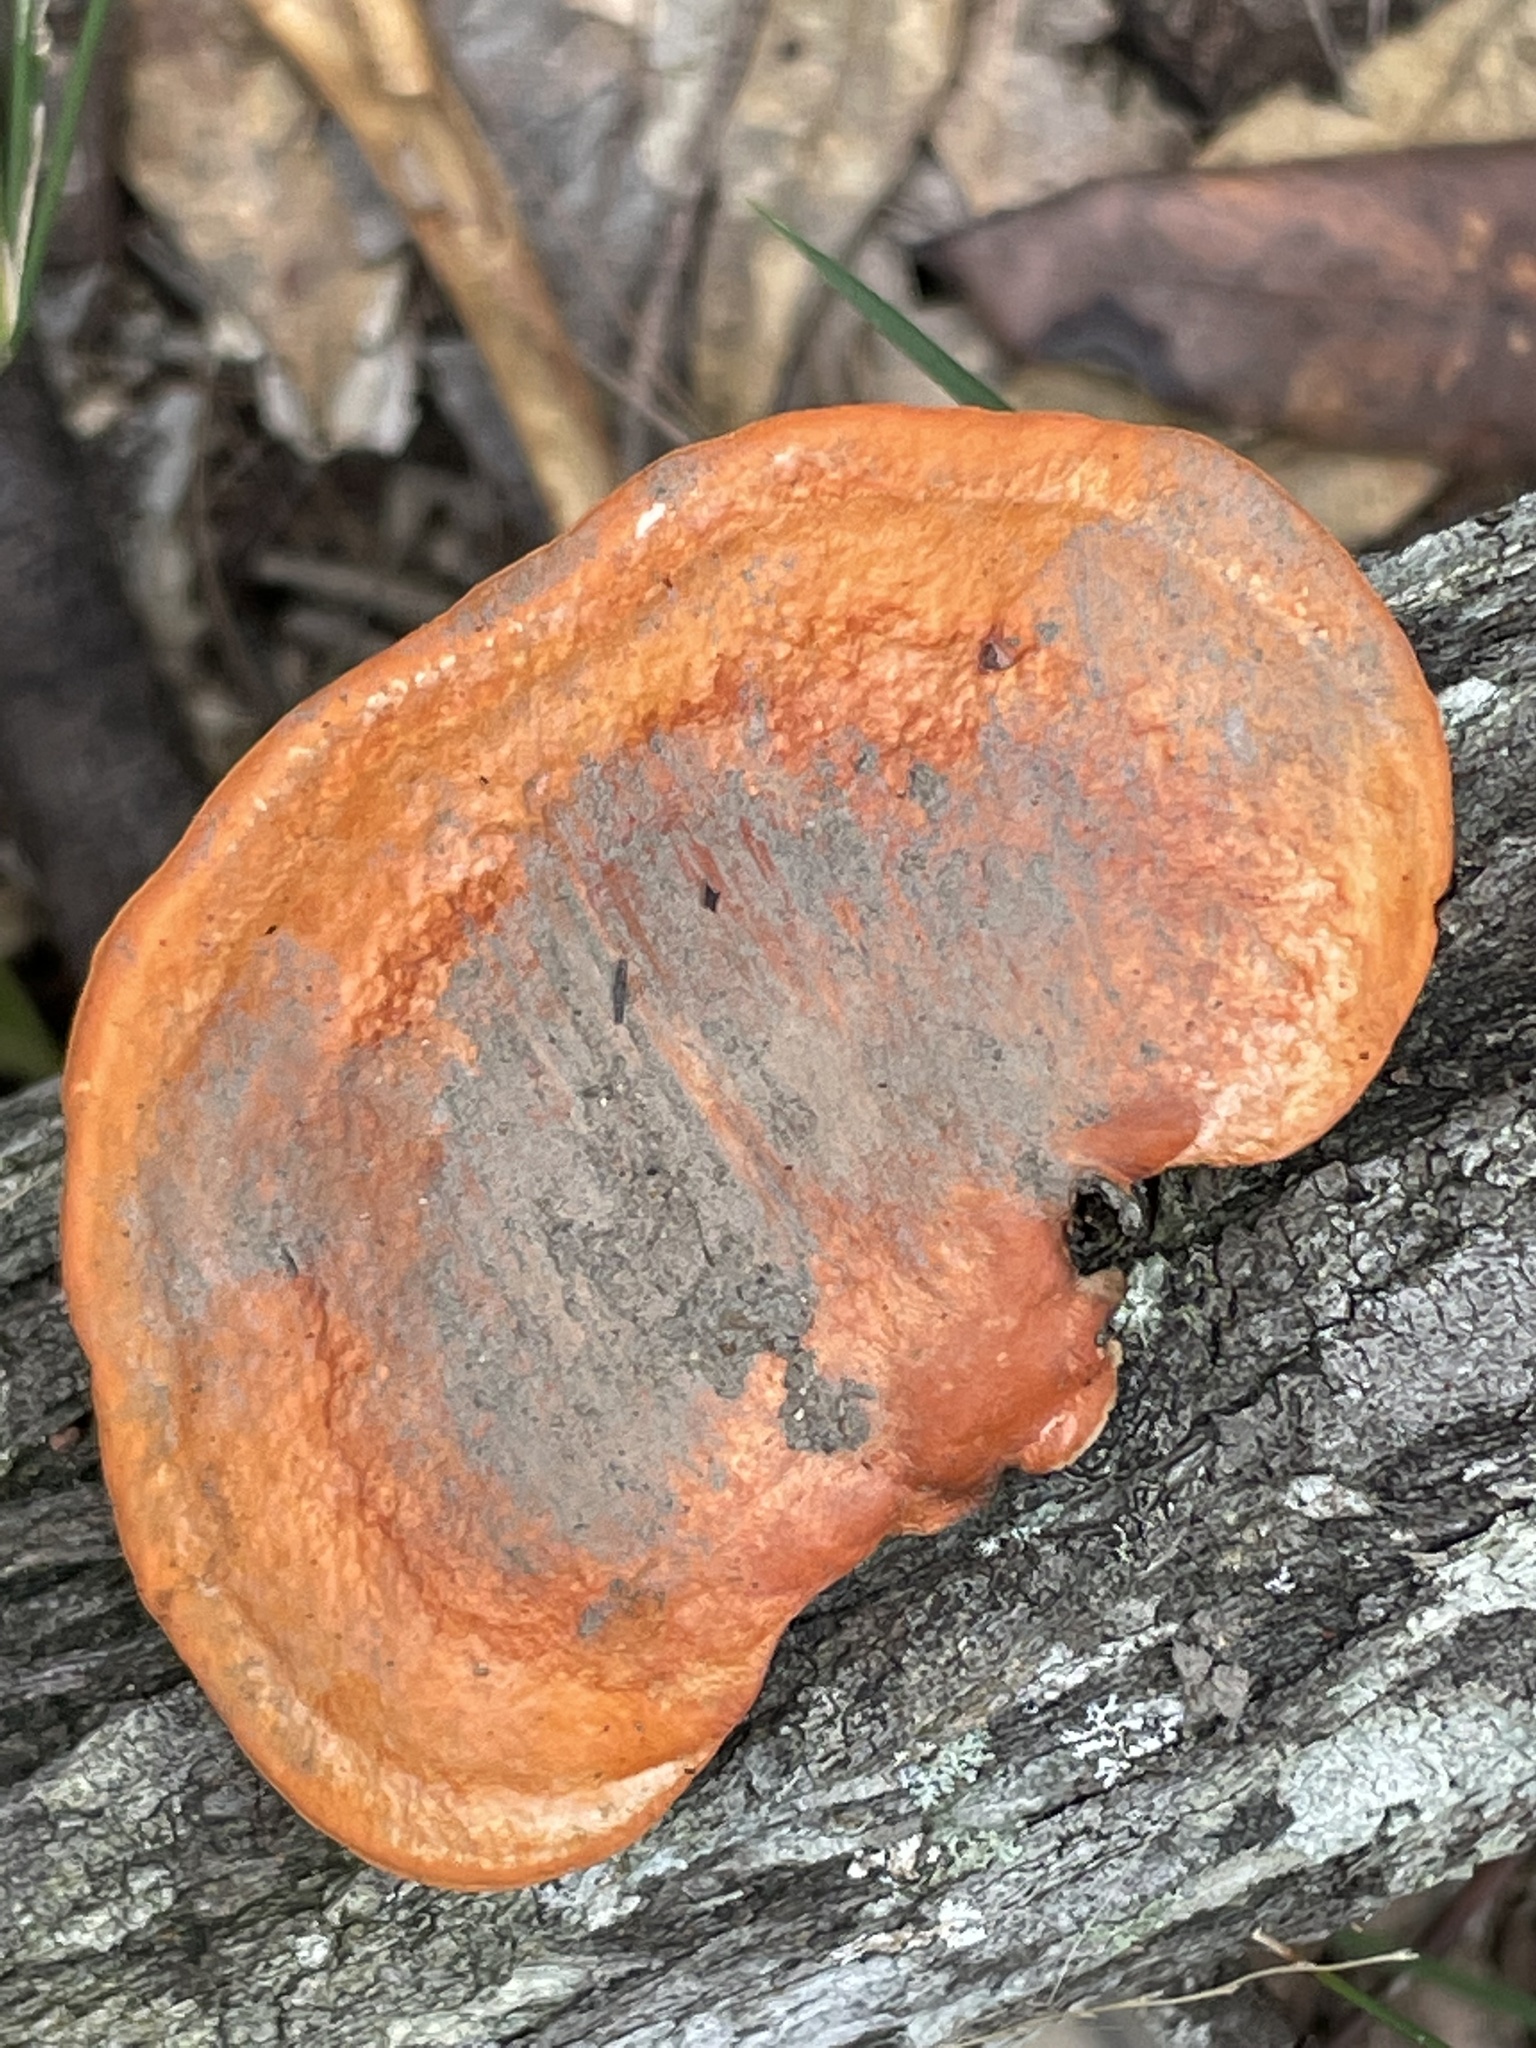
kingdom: Fungi
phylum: Basidiomycota
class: Agaricomycetes
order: Polyporales
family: Polyporaceae
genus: Trametes
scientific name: Trametes coccinea
